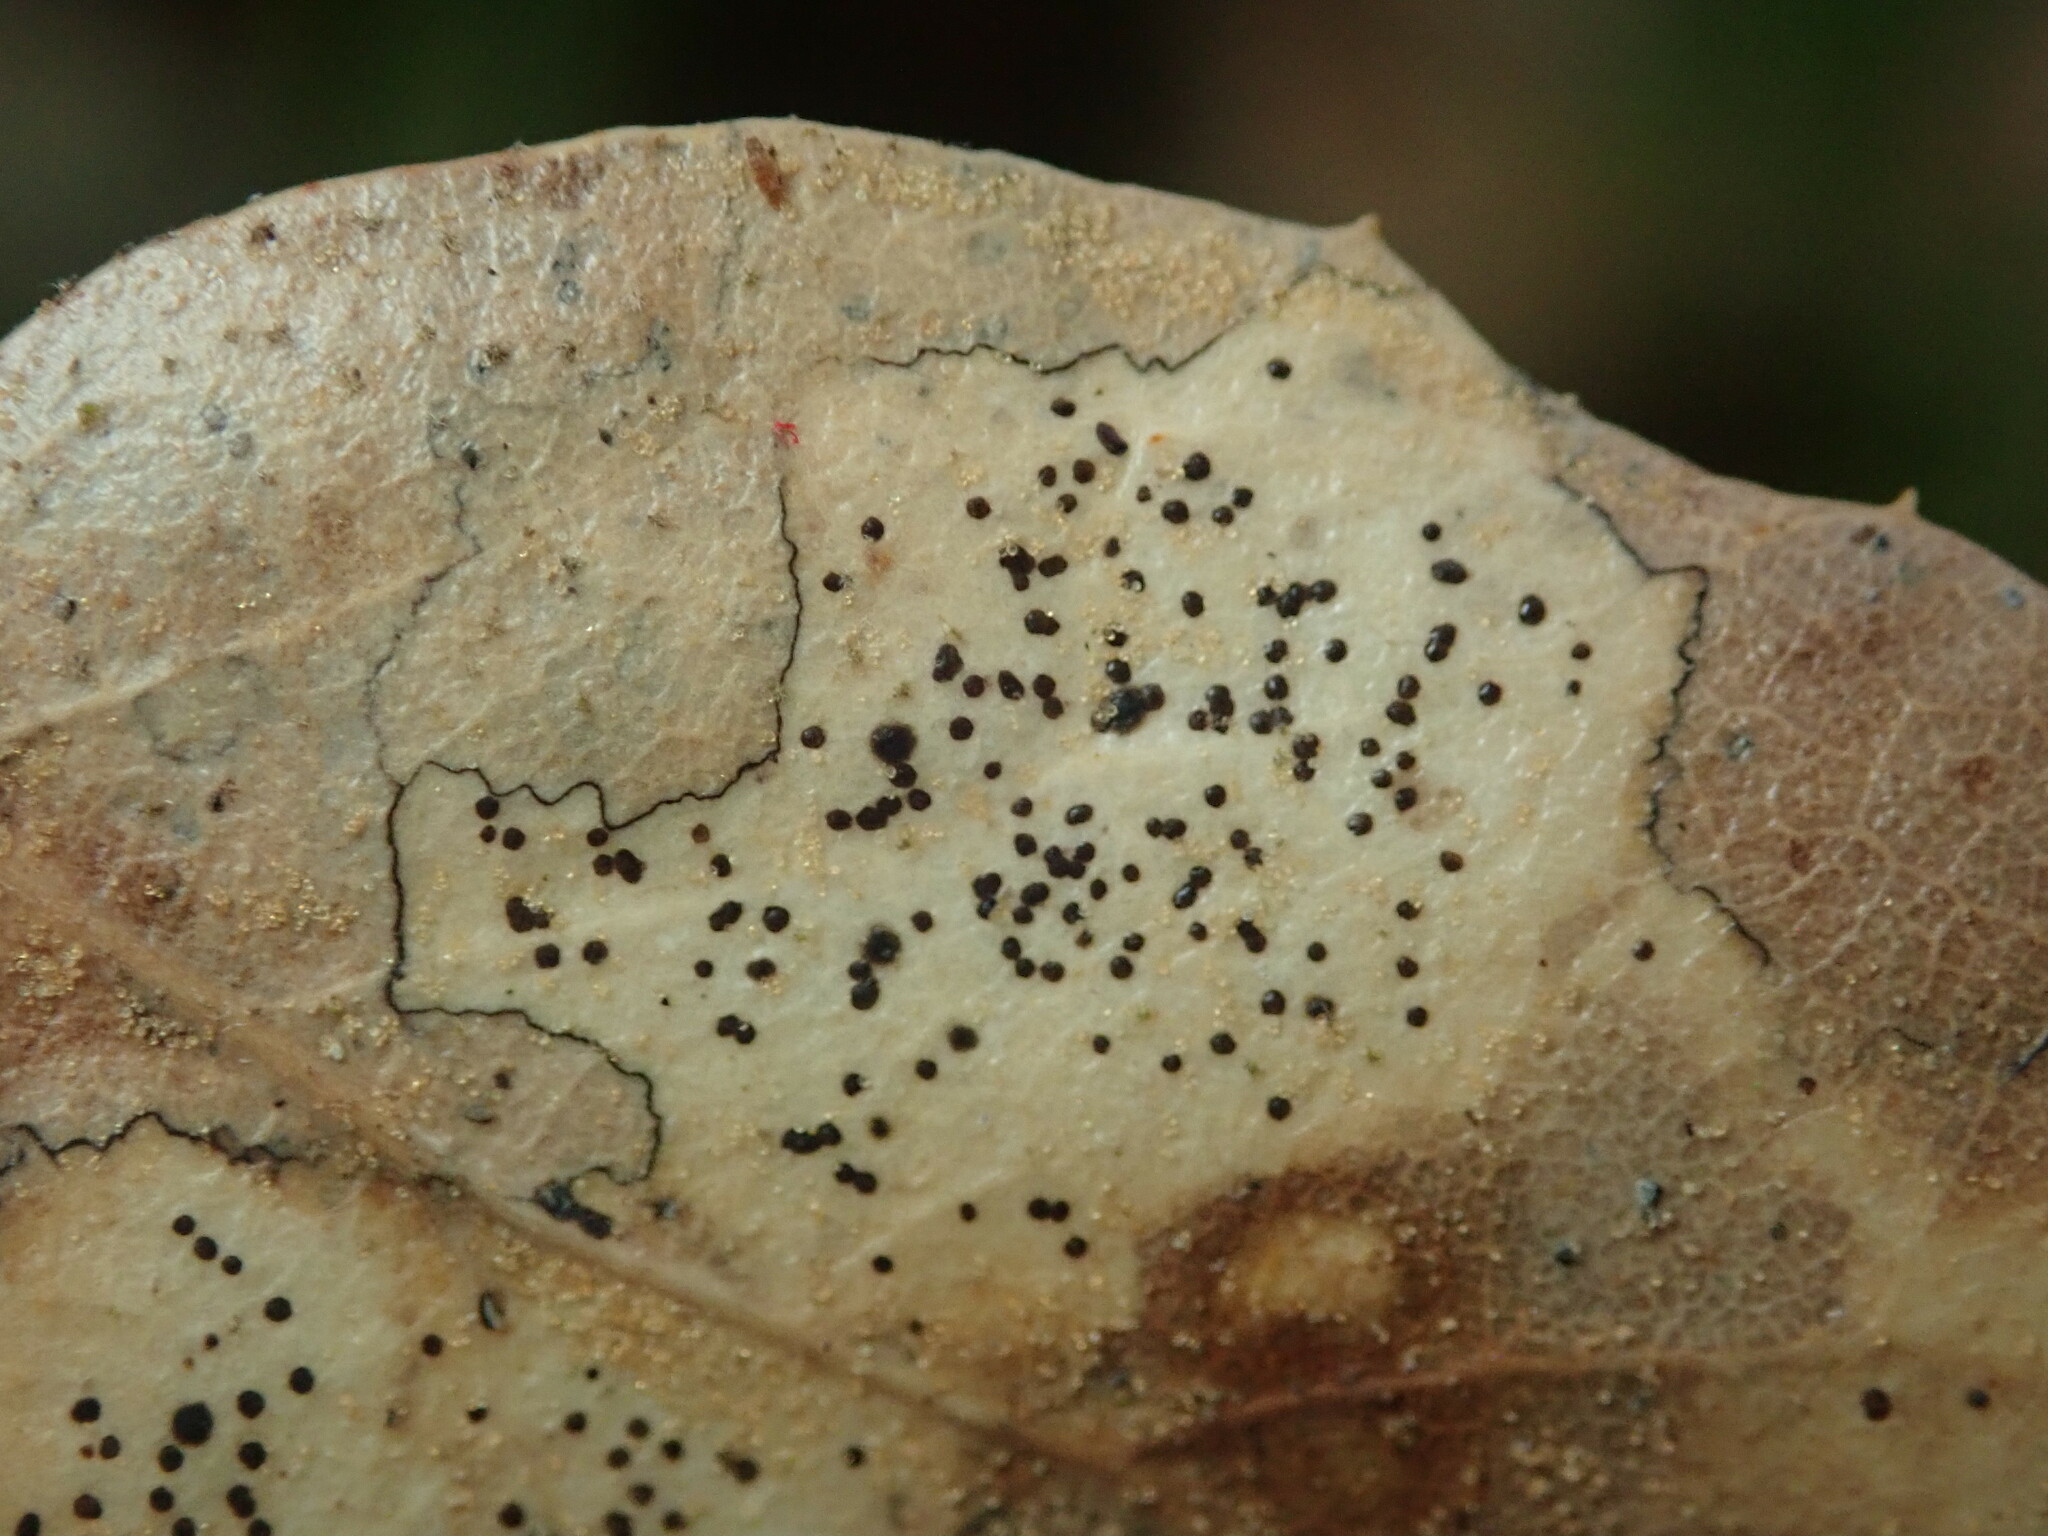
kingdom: Fungi
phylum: Ascomycota
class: Leotiomycetes
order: Rhytismatales
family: Rhytismataceae
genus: Coccomyces
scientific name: Coccomyces dentatus
